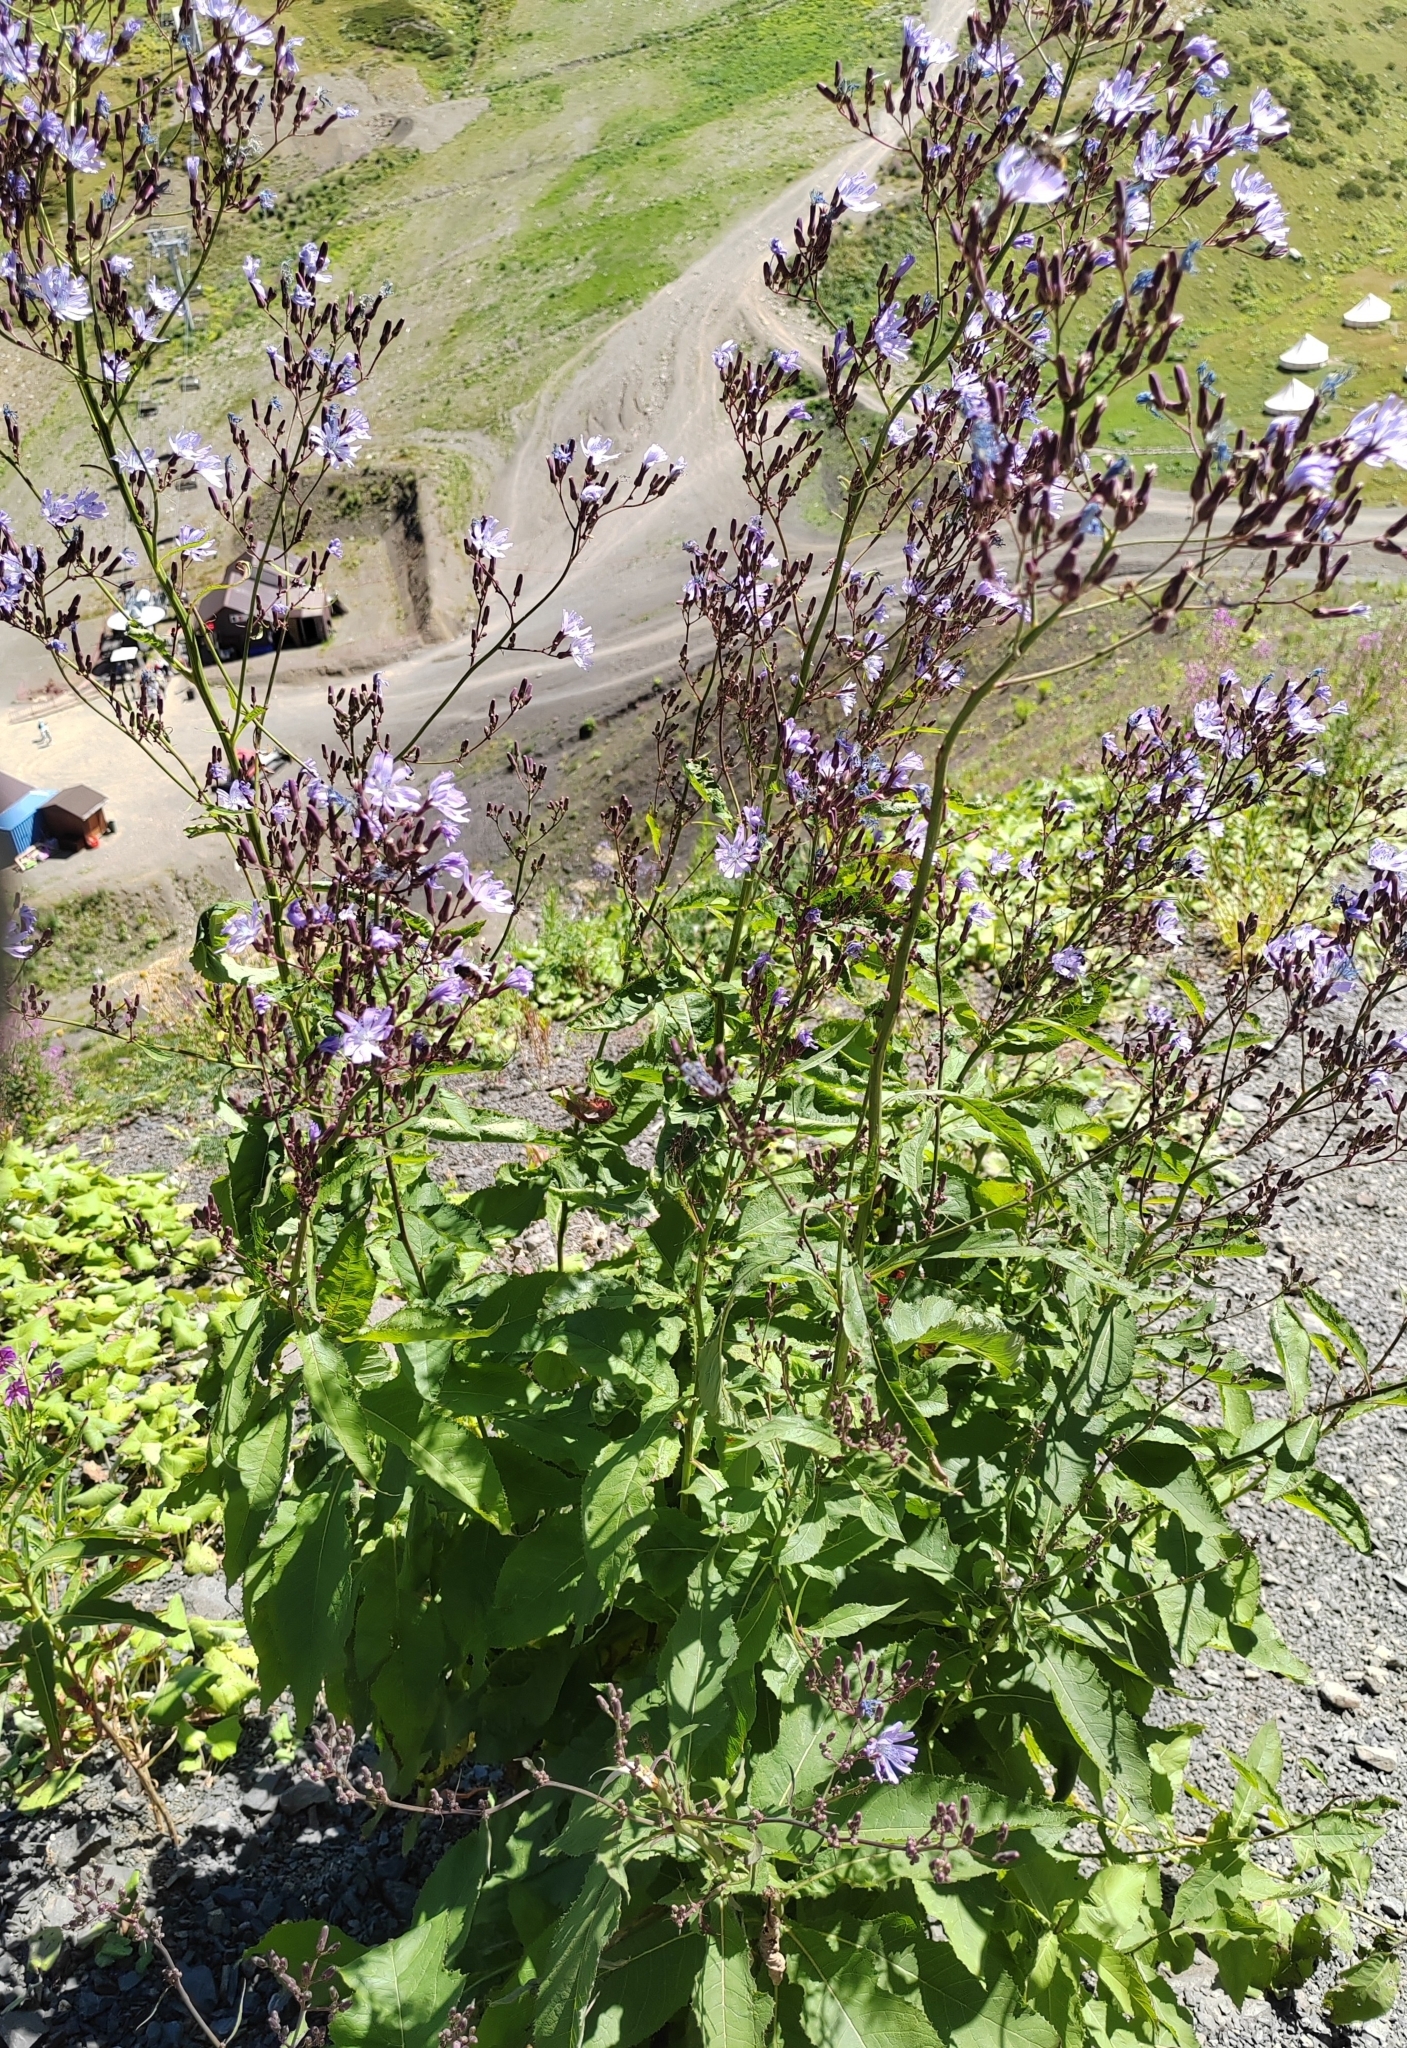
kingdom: Plantae
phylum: Tracheophyta
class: Magnoliopsida
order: Asterales
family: Asteraceae
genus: Cicerbita
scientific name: Cicerbita prenanthoides
